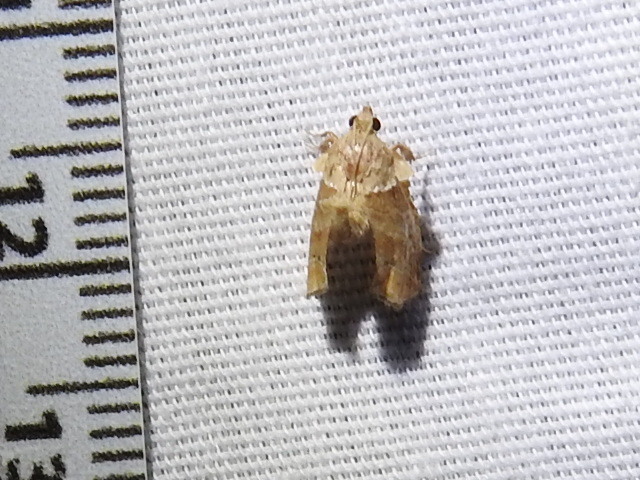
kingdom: Animalia
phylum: Arthropoda
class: Insecta
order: Lepidoptera
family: Pyralidae
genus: Tosale
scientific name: Tosale aucta
